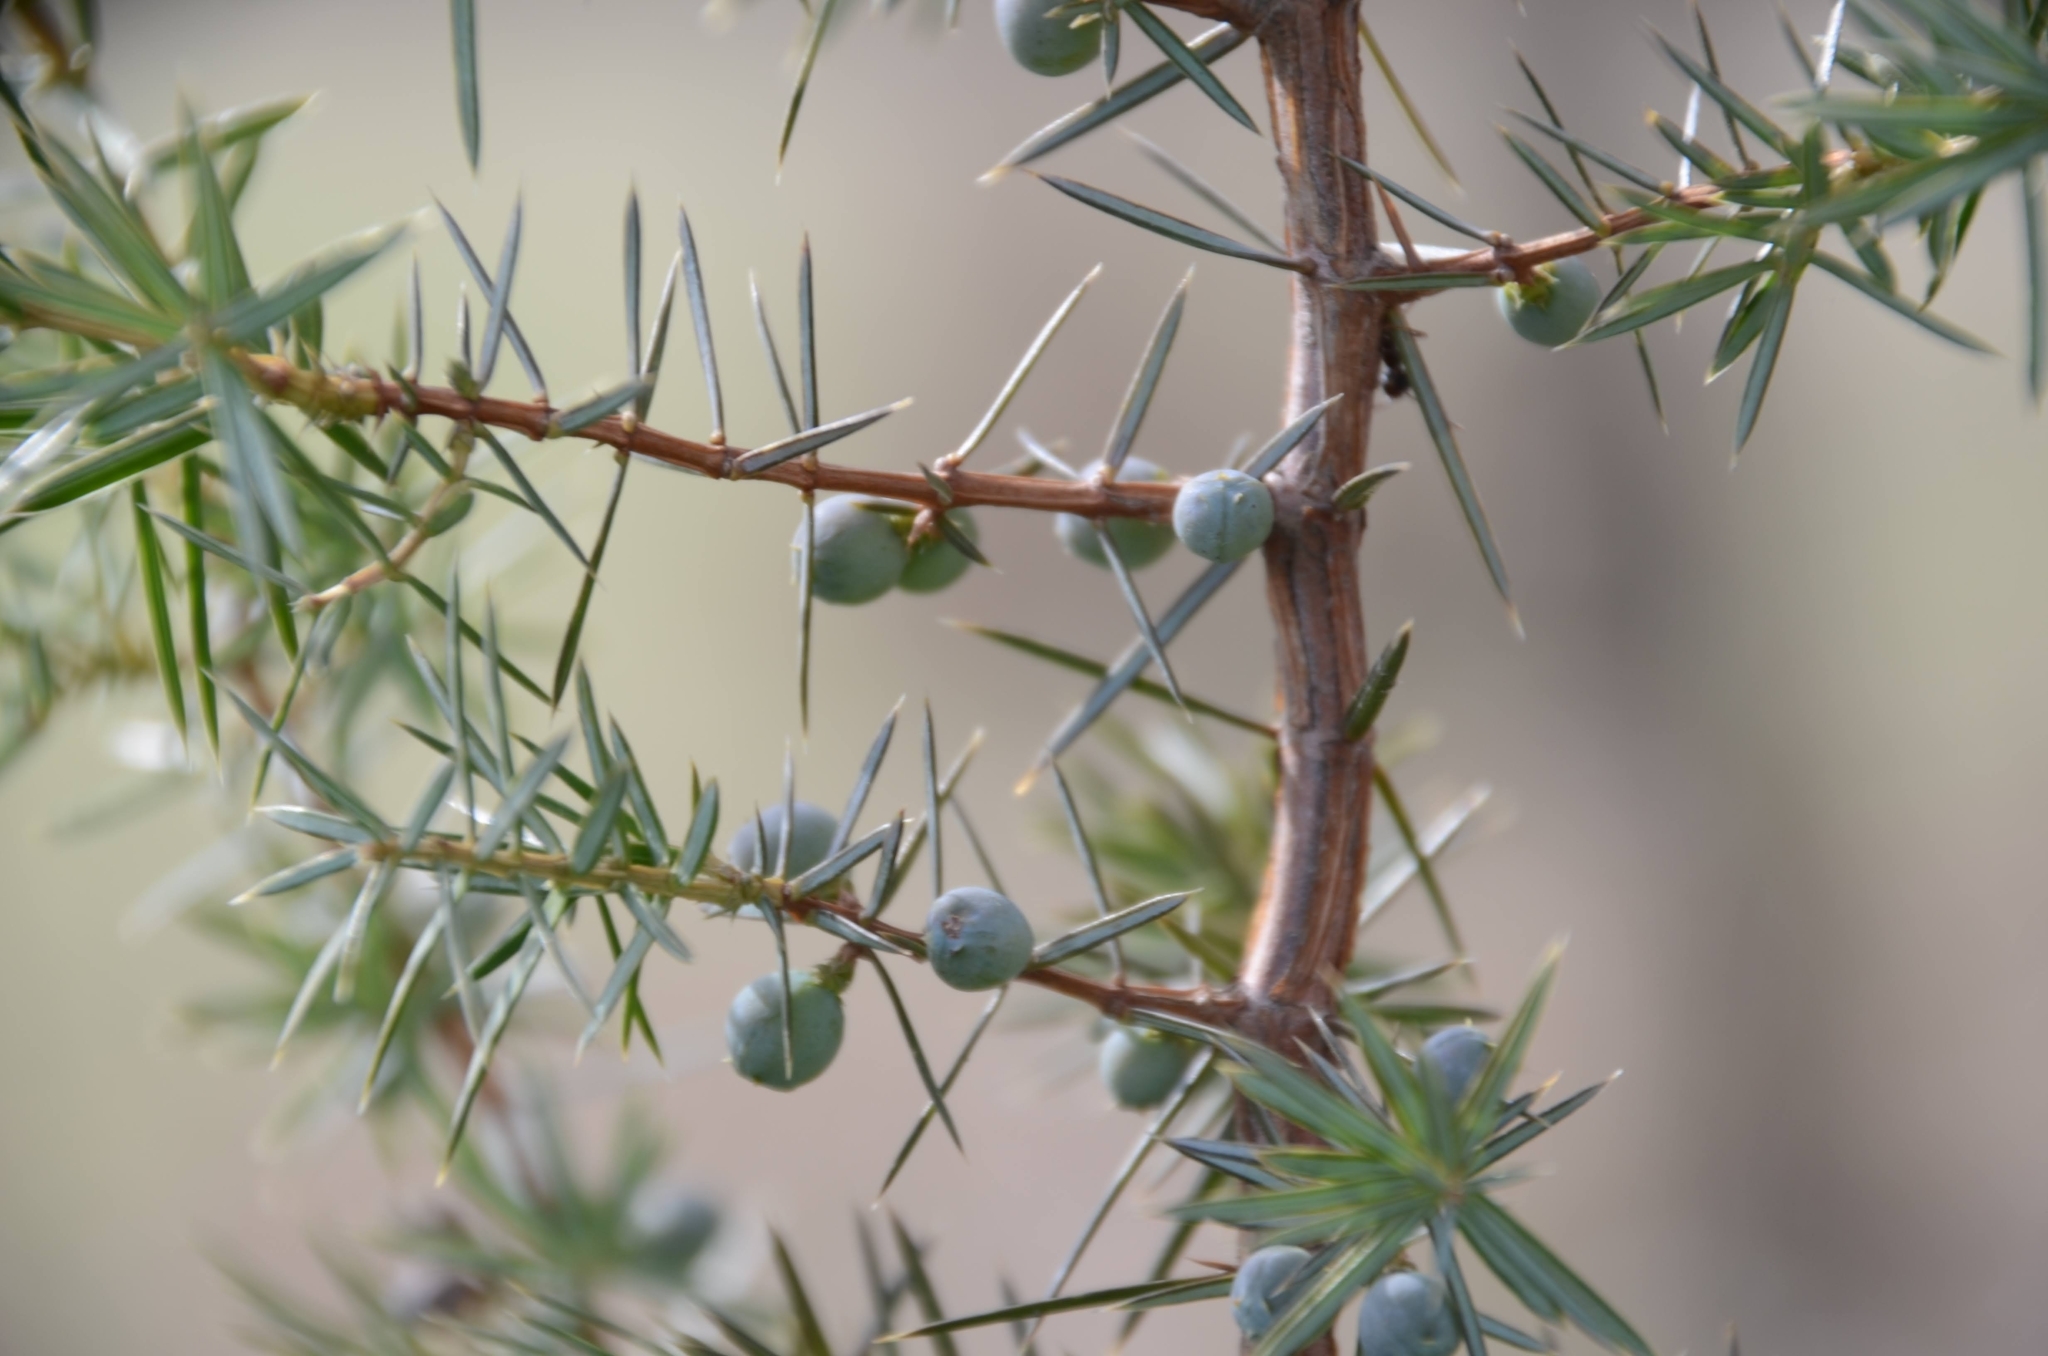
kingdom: Plantae
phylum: Tracheophyta
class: Pinopsida
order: Pinales
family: Cupressaceae
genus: Juniperus
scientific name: Juniperus communis
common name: Common juniper
